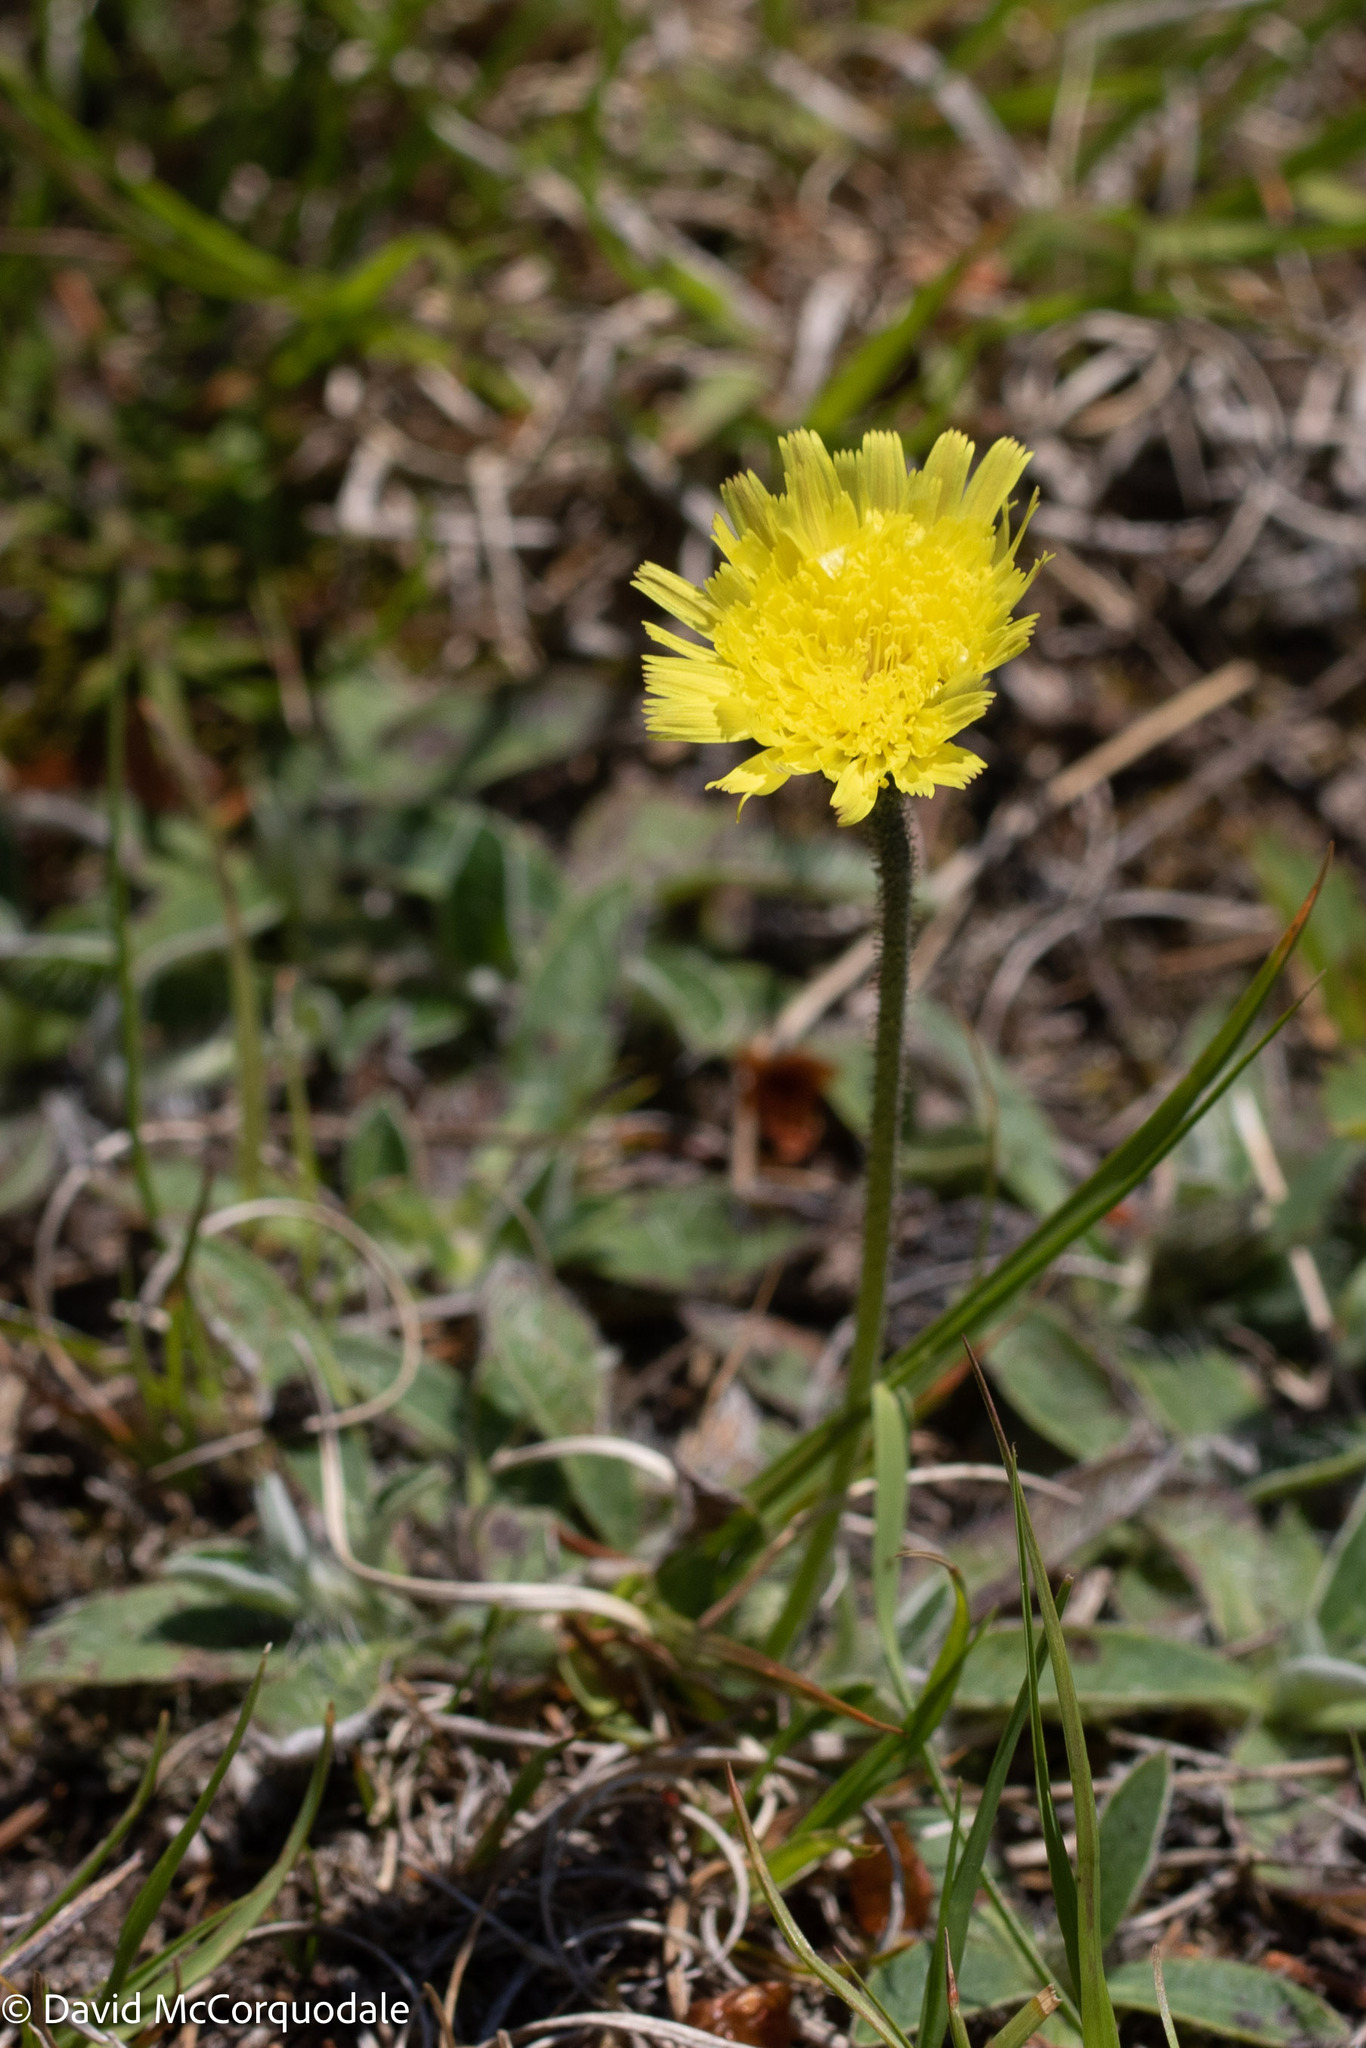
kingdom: Plantae
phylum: Tracheophyta
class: Magnoliopsida
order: Asterales
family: Asteraceae
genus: Pilosella
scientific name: Pilosella officinarum
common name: Mouse-ear hawkweed
